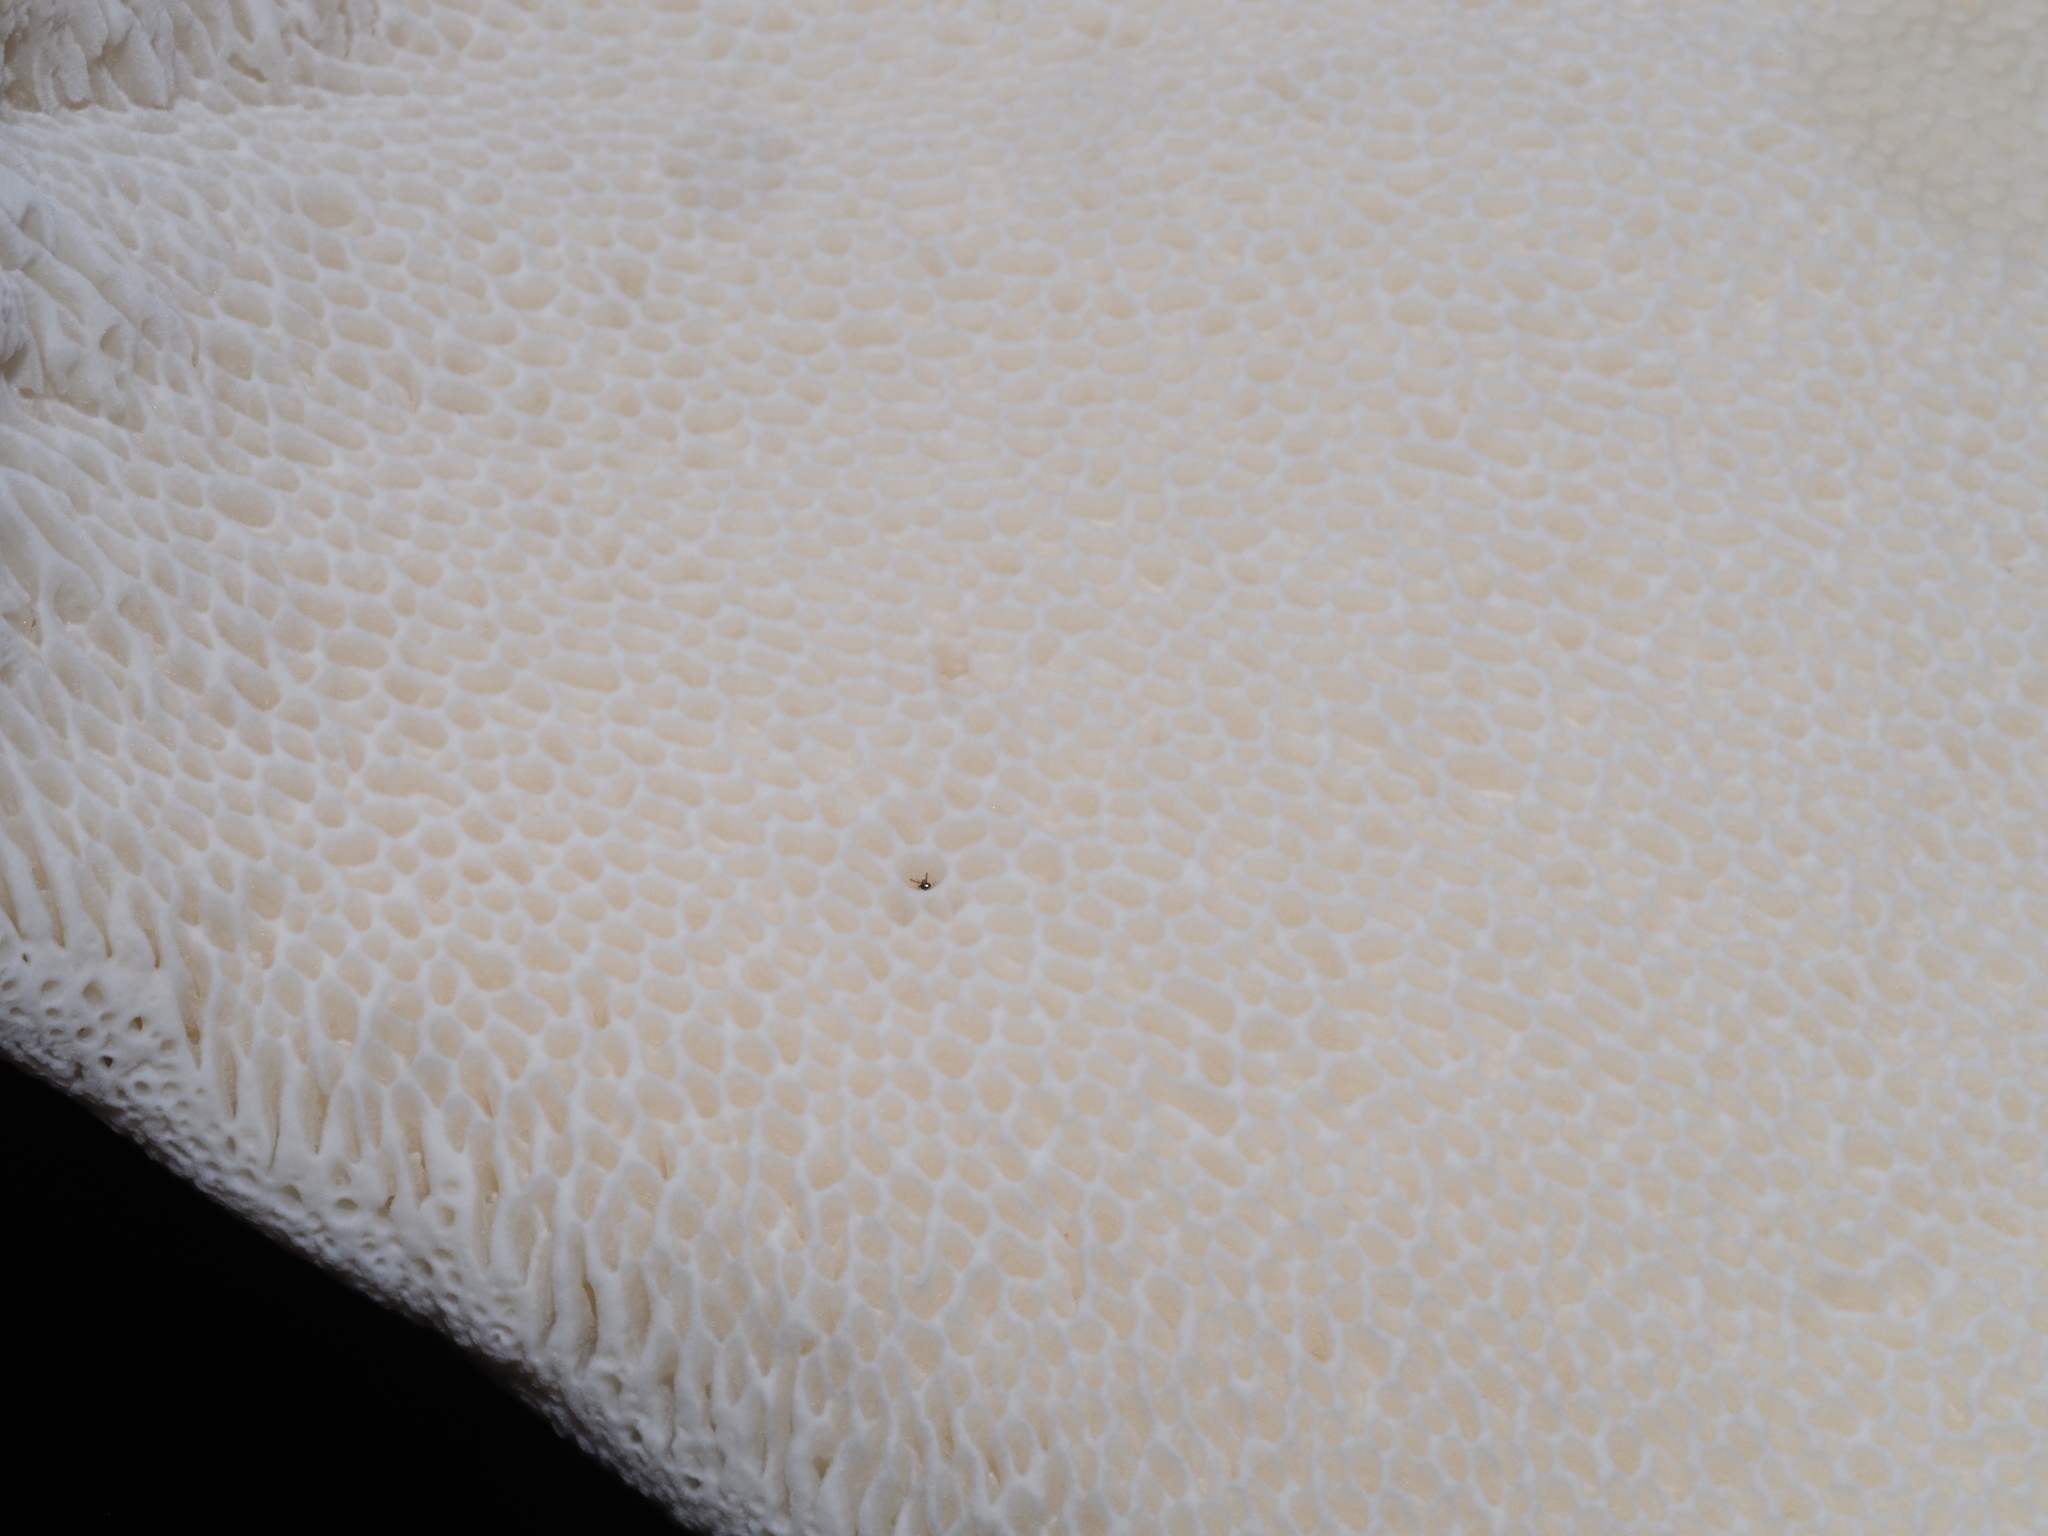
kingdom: Fungi
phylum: Basidiomycota
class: Agaricomycetes
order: Russulales
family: Bondarzewiaceae
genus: Bondarzewia
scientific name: Bondarzewia berkeleyi
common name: Berkeley's polypore
